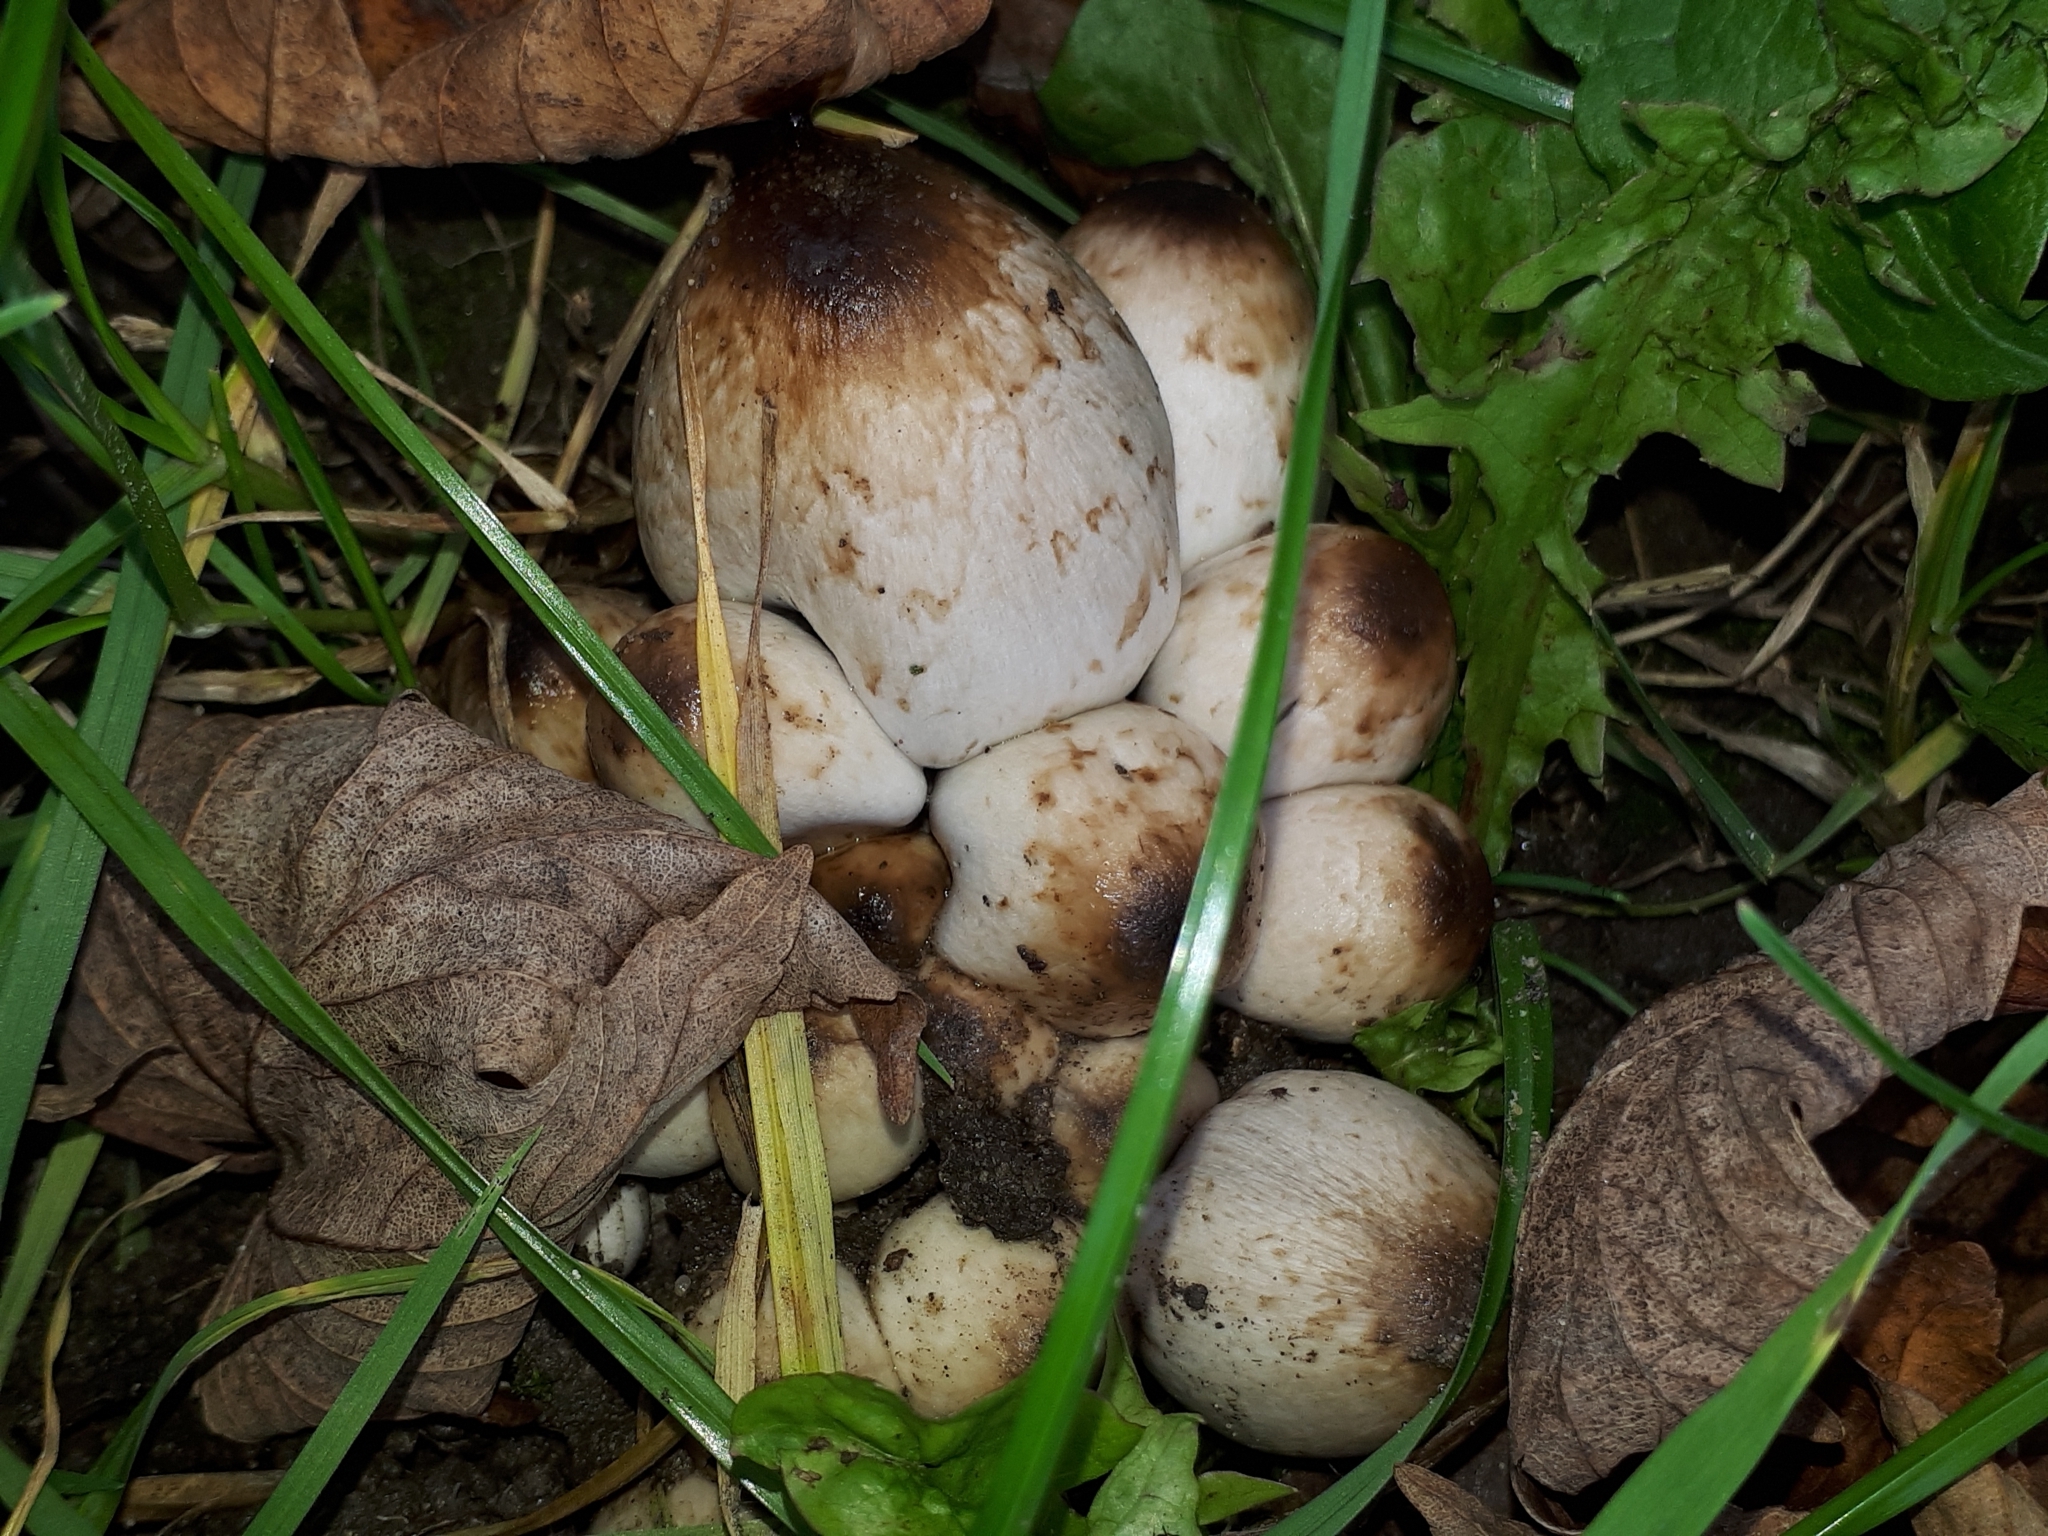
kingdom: Fungi
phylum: Basidiomycota
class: Agaricomycetes
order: Agaricales
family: Psathyrellaceae
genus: Coprinopsis
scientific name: Coprinopsis atramentaria
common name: Common ink-cap
